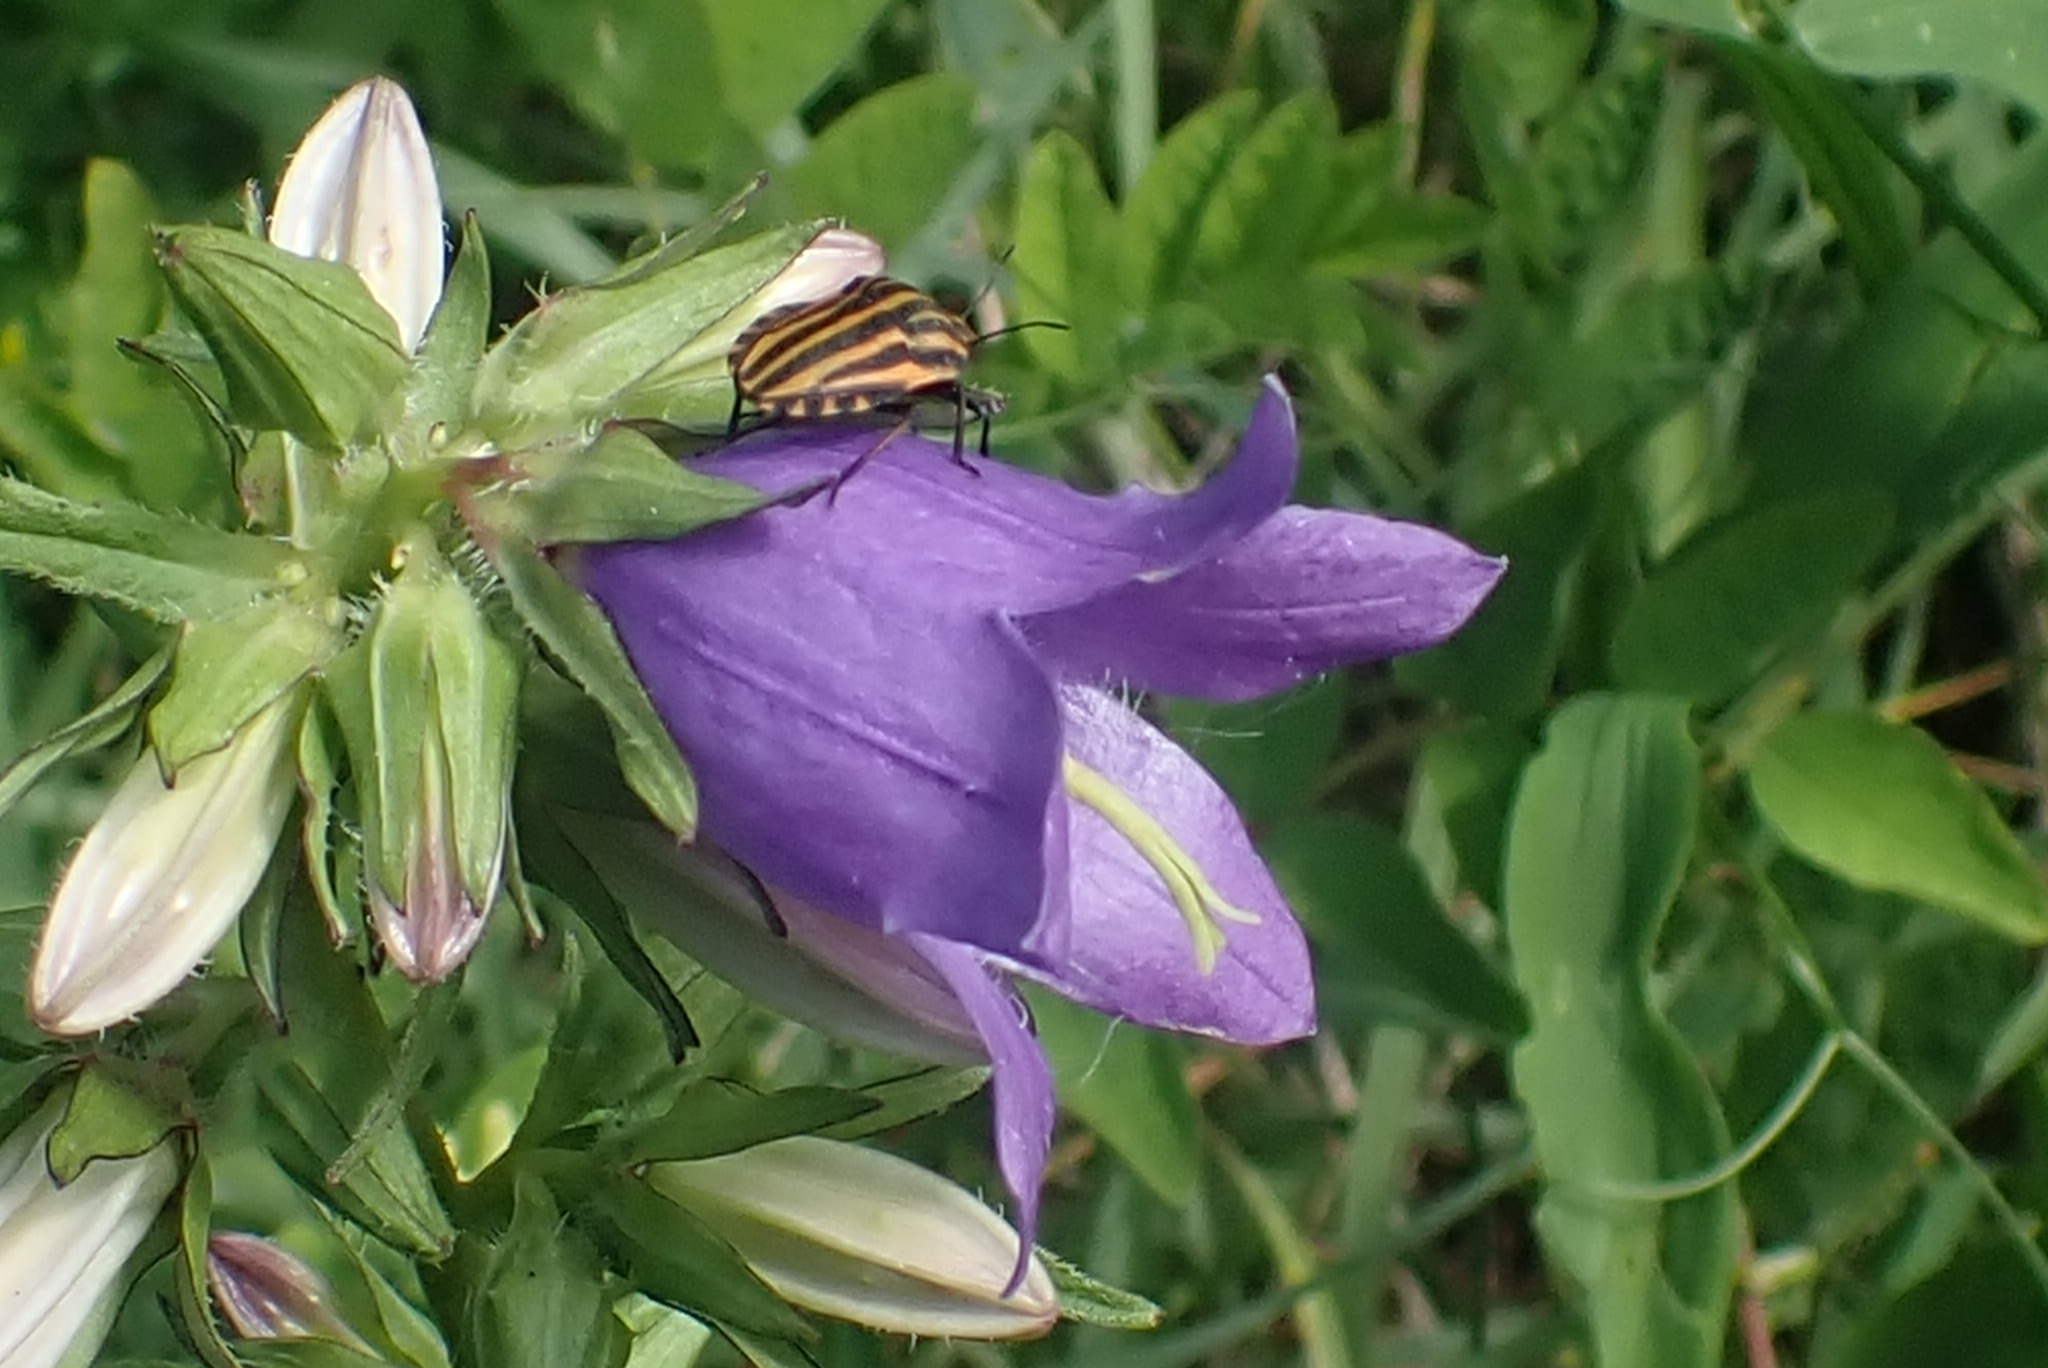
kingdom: Plantae
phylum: Tracheophyta
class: Magnoliopsida
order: Asterales
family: Campanulaceae
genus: Campanula
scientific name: Campanula trachelium
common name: Nettle-leaved bellflower
